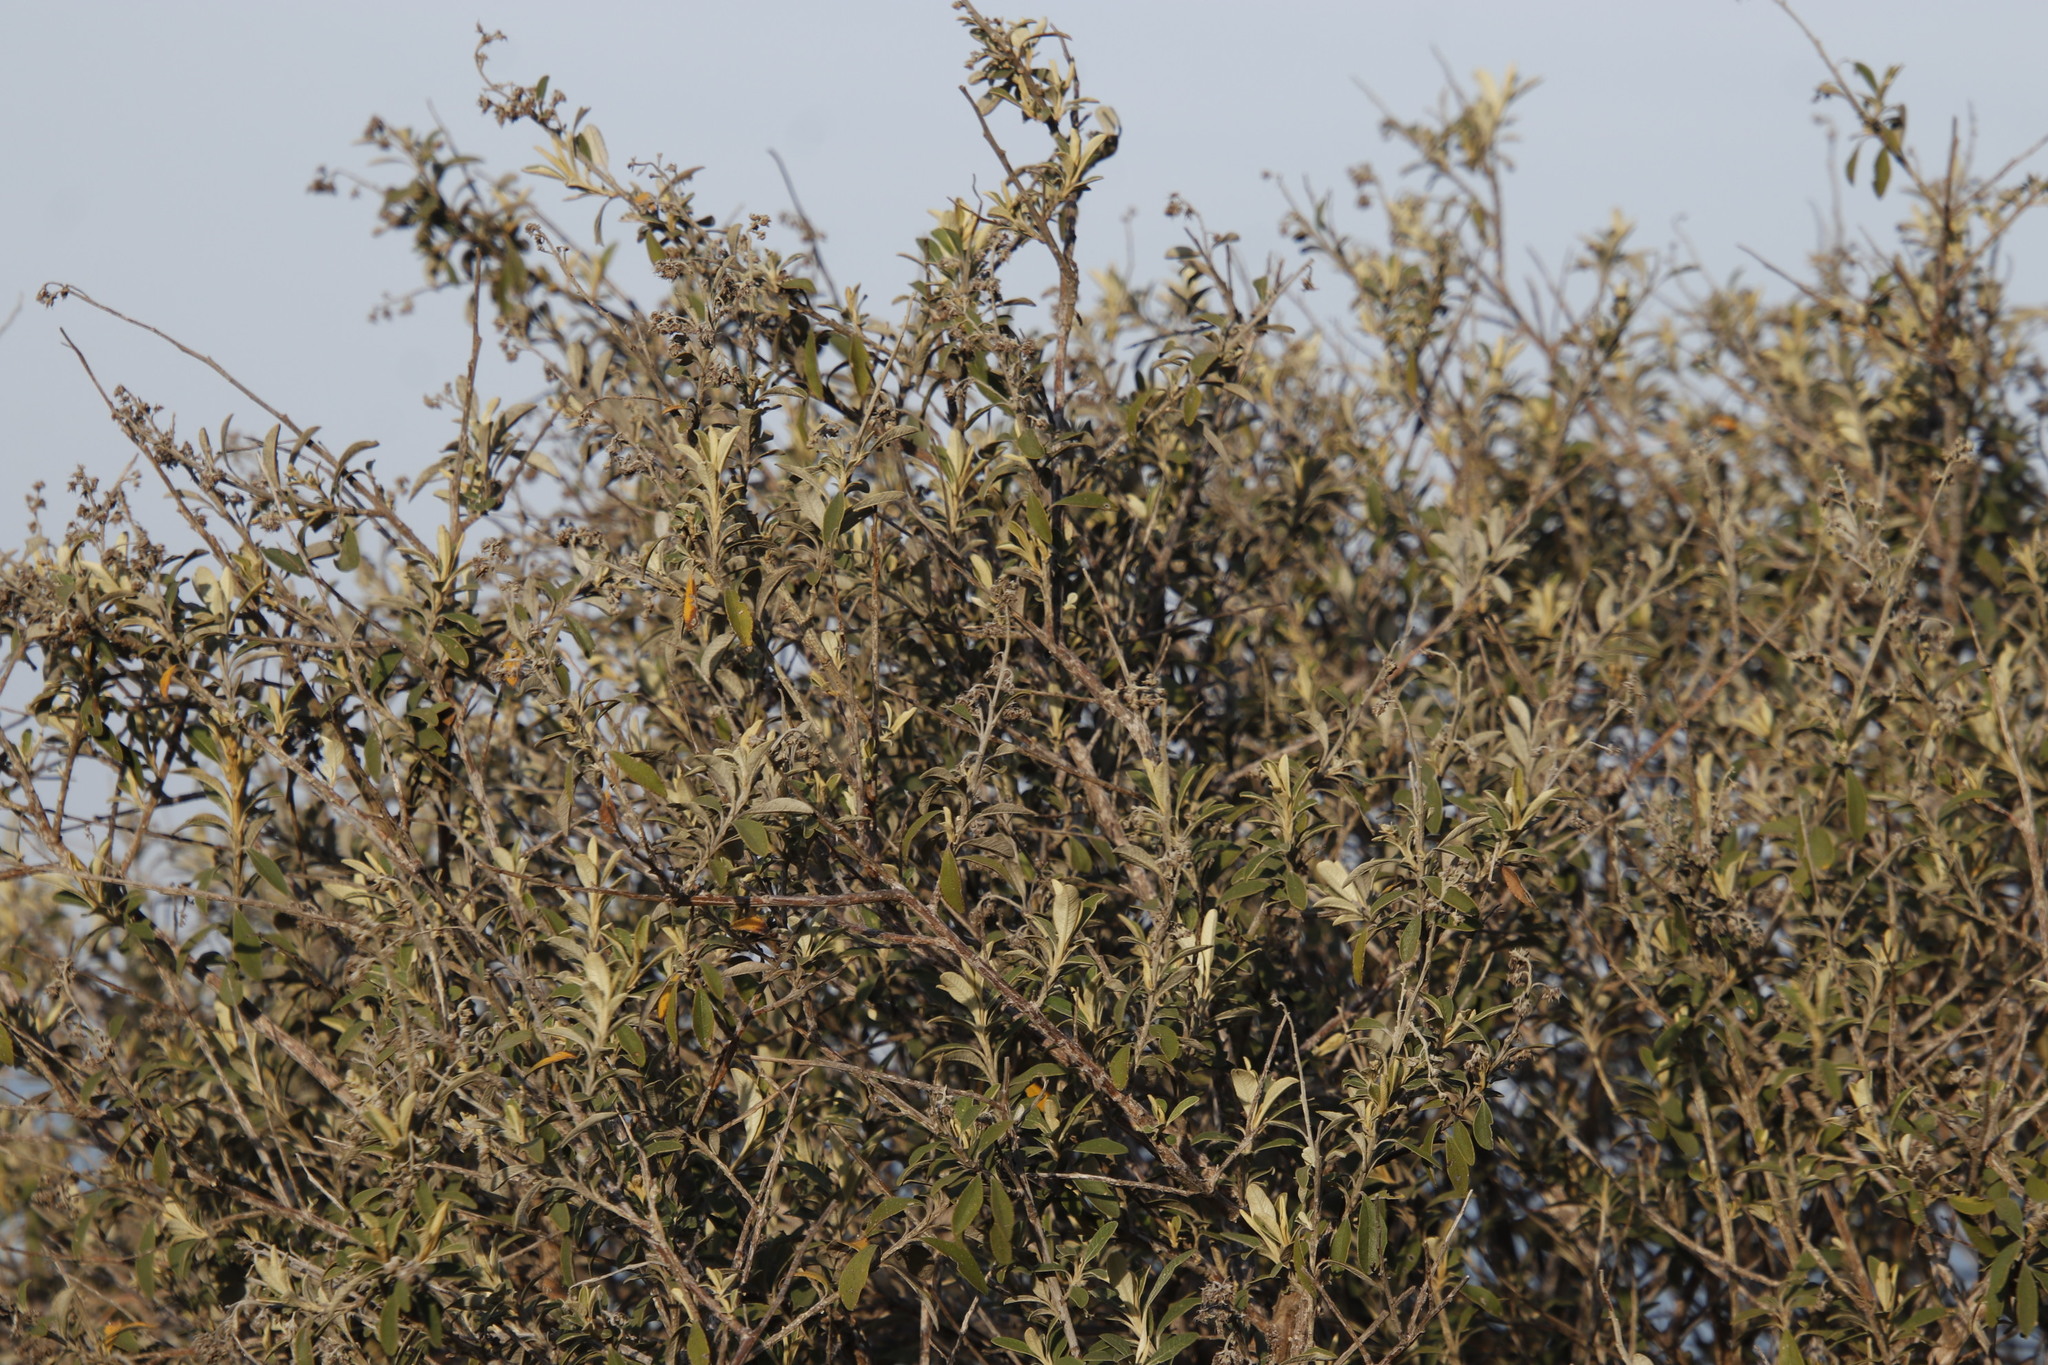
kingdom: Plantae
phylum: Tracheophyta
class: Magnoliopsida
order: Asterales
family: Asteraceae
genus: Tarchonanthus
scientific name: Tarchonanthus littoralis
